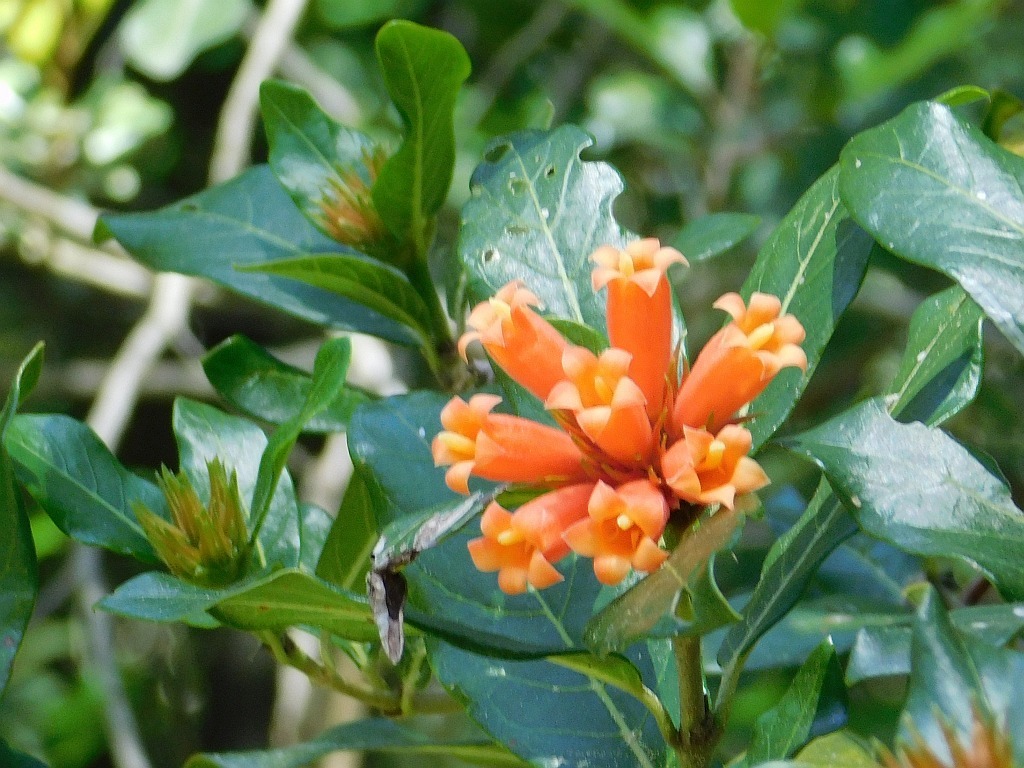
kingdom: Plantae
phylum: Tracheophyta
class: Magnoliopsida
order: Gentianales
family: Rubiaceae
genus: Burchellia
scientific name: Burchellia bubalina
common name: Wild pomegranate
